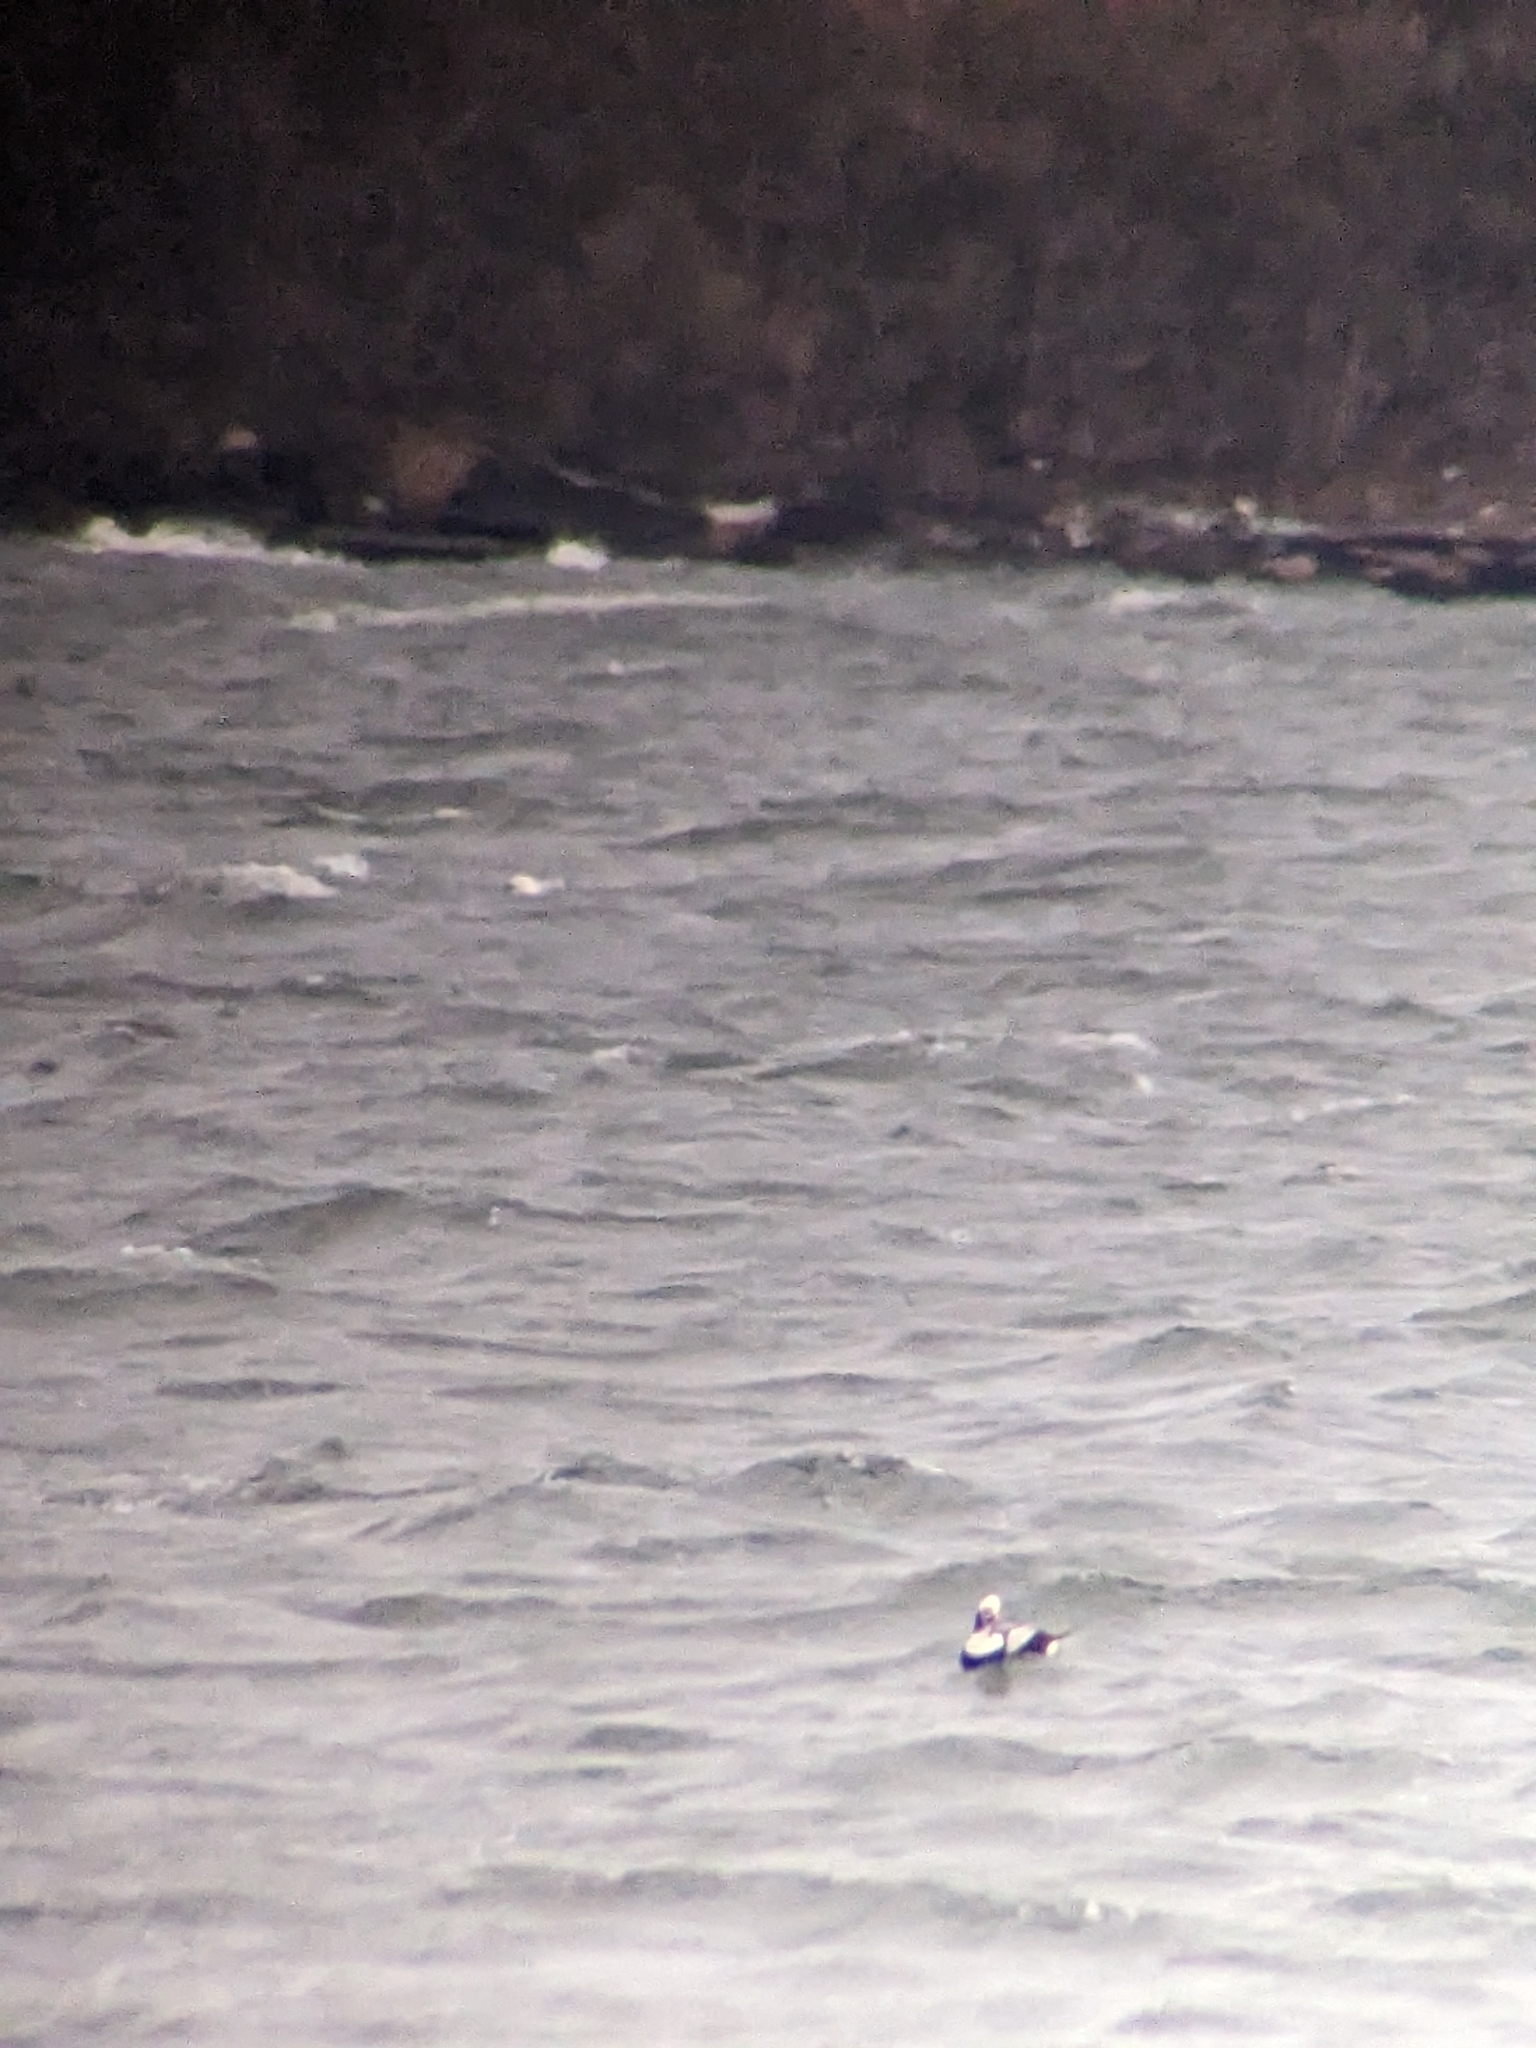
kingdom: Animalia
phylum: Chordata
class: Aves
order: Anseriformes
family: Anatidae
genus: Clangula
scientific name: Clangula hyemalis
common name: Long-tailed duck
